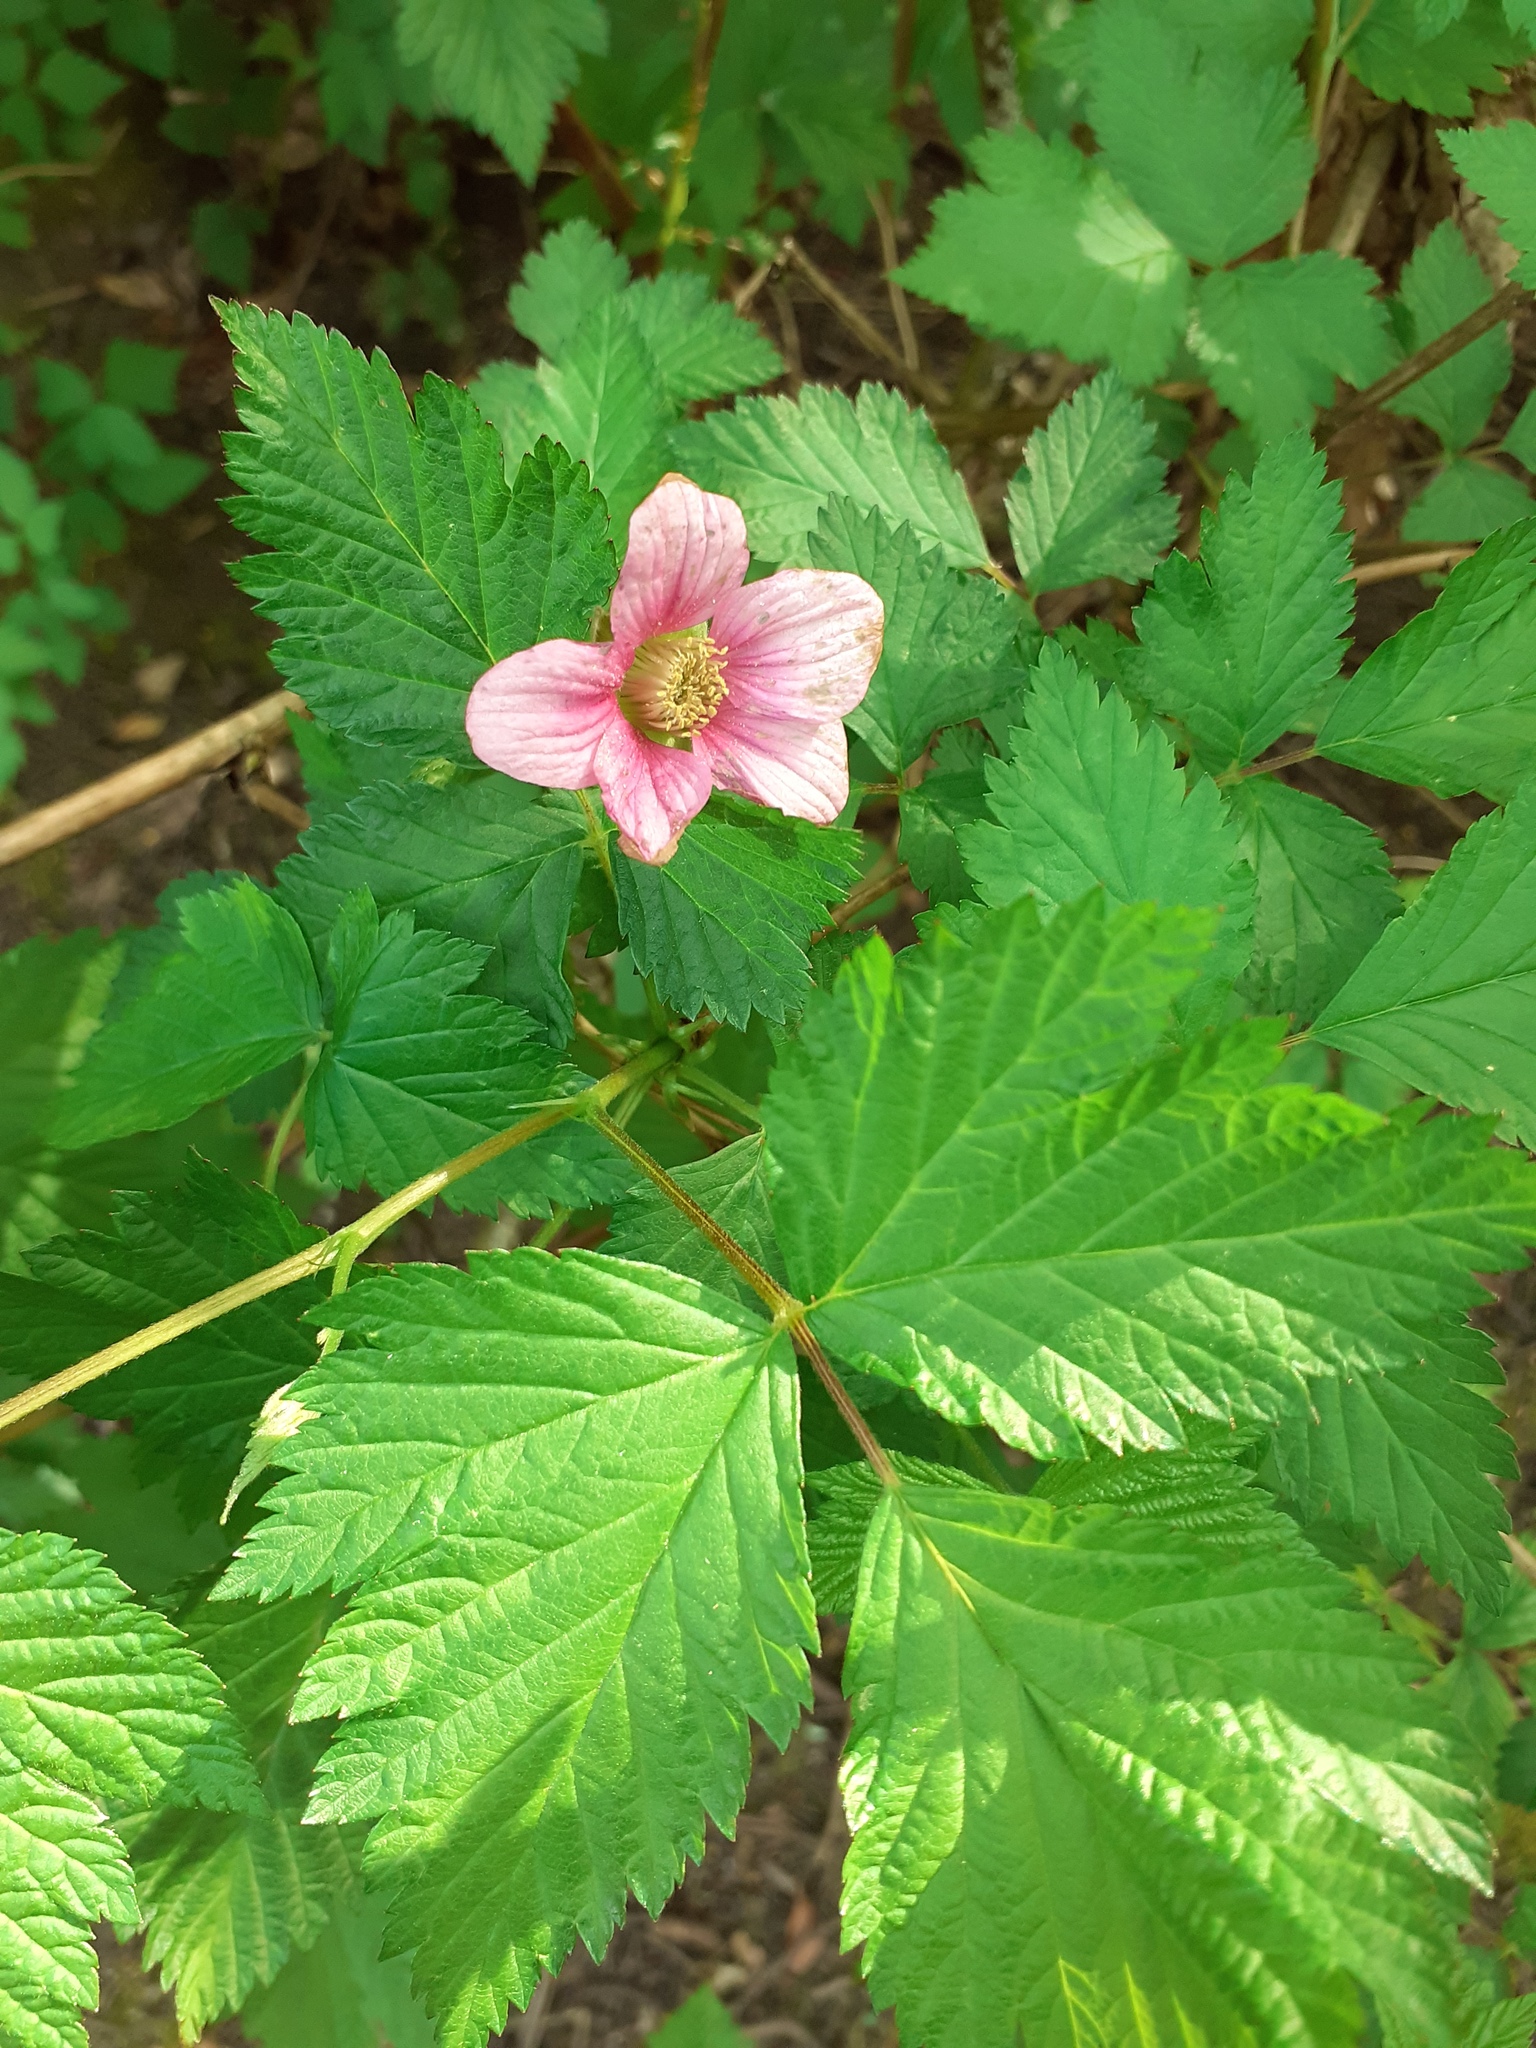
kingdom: Plantae
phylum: Tracheophyta
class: Magnoliopsida
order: Rosales
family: Rosaceae
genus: Rubus
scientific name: Rubus spectabilis
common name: Salmonberry
